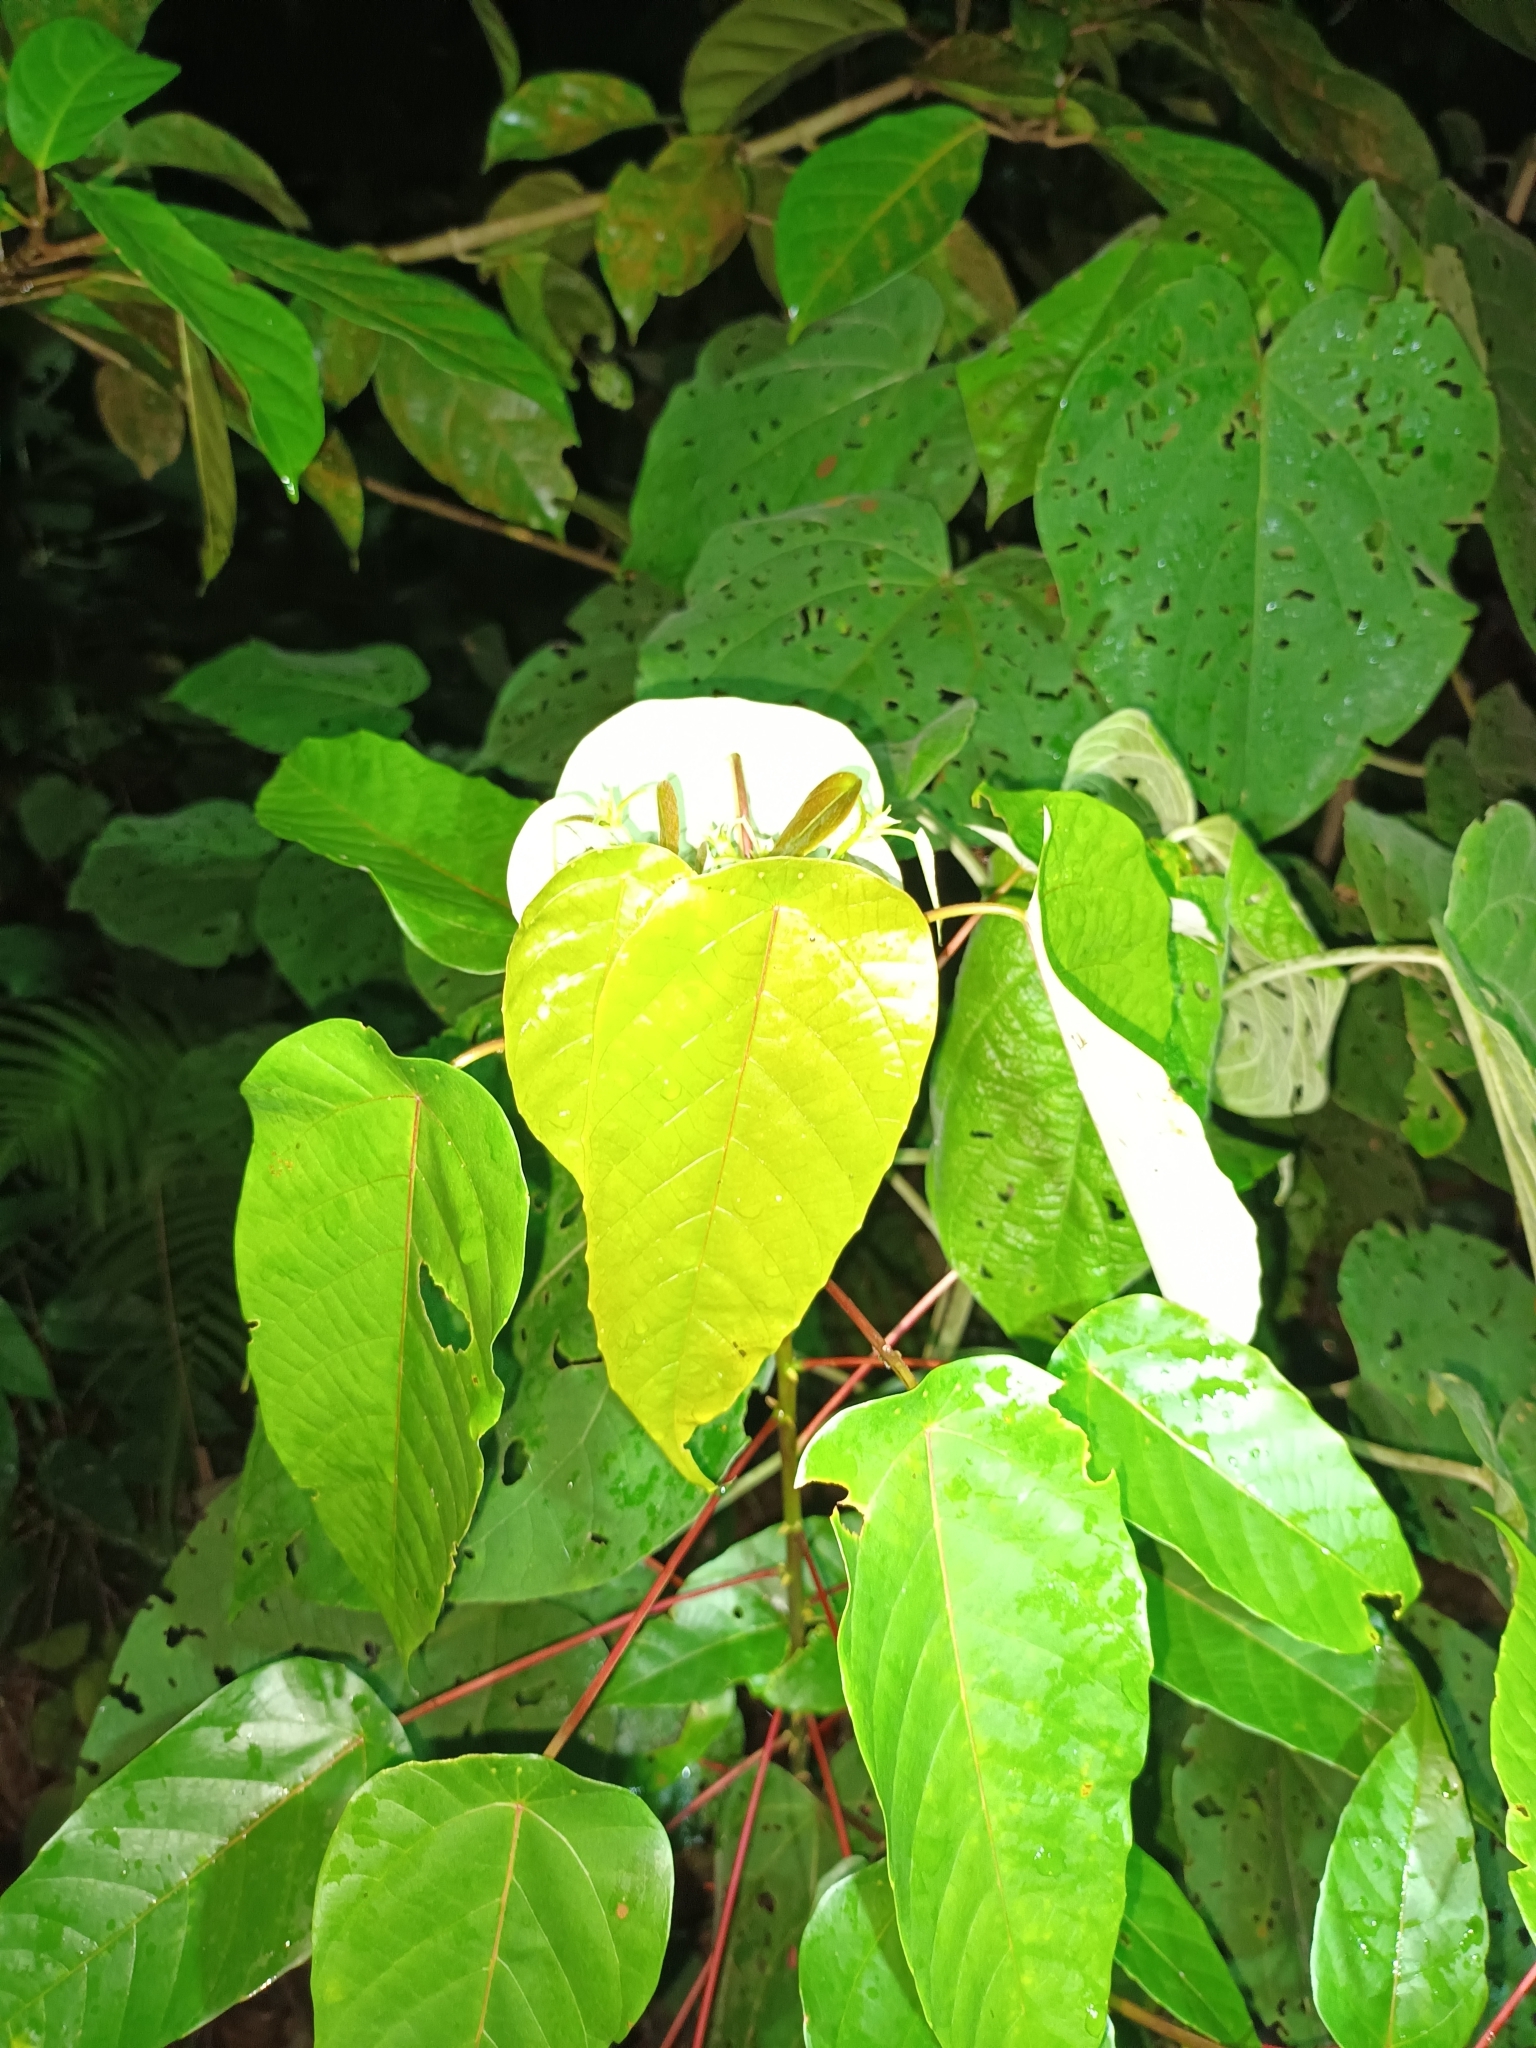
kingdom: Plantae
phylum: Tracheophyta
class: Magnoliopsida
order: Malpighiales
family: Euphorbiaceae
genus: Macaranga
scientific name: Macaranga hullettii
